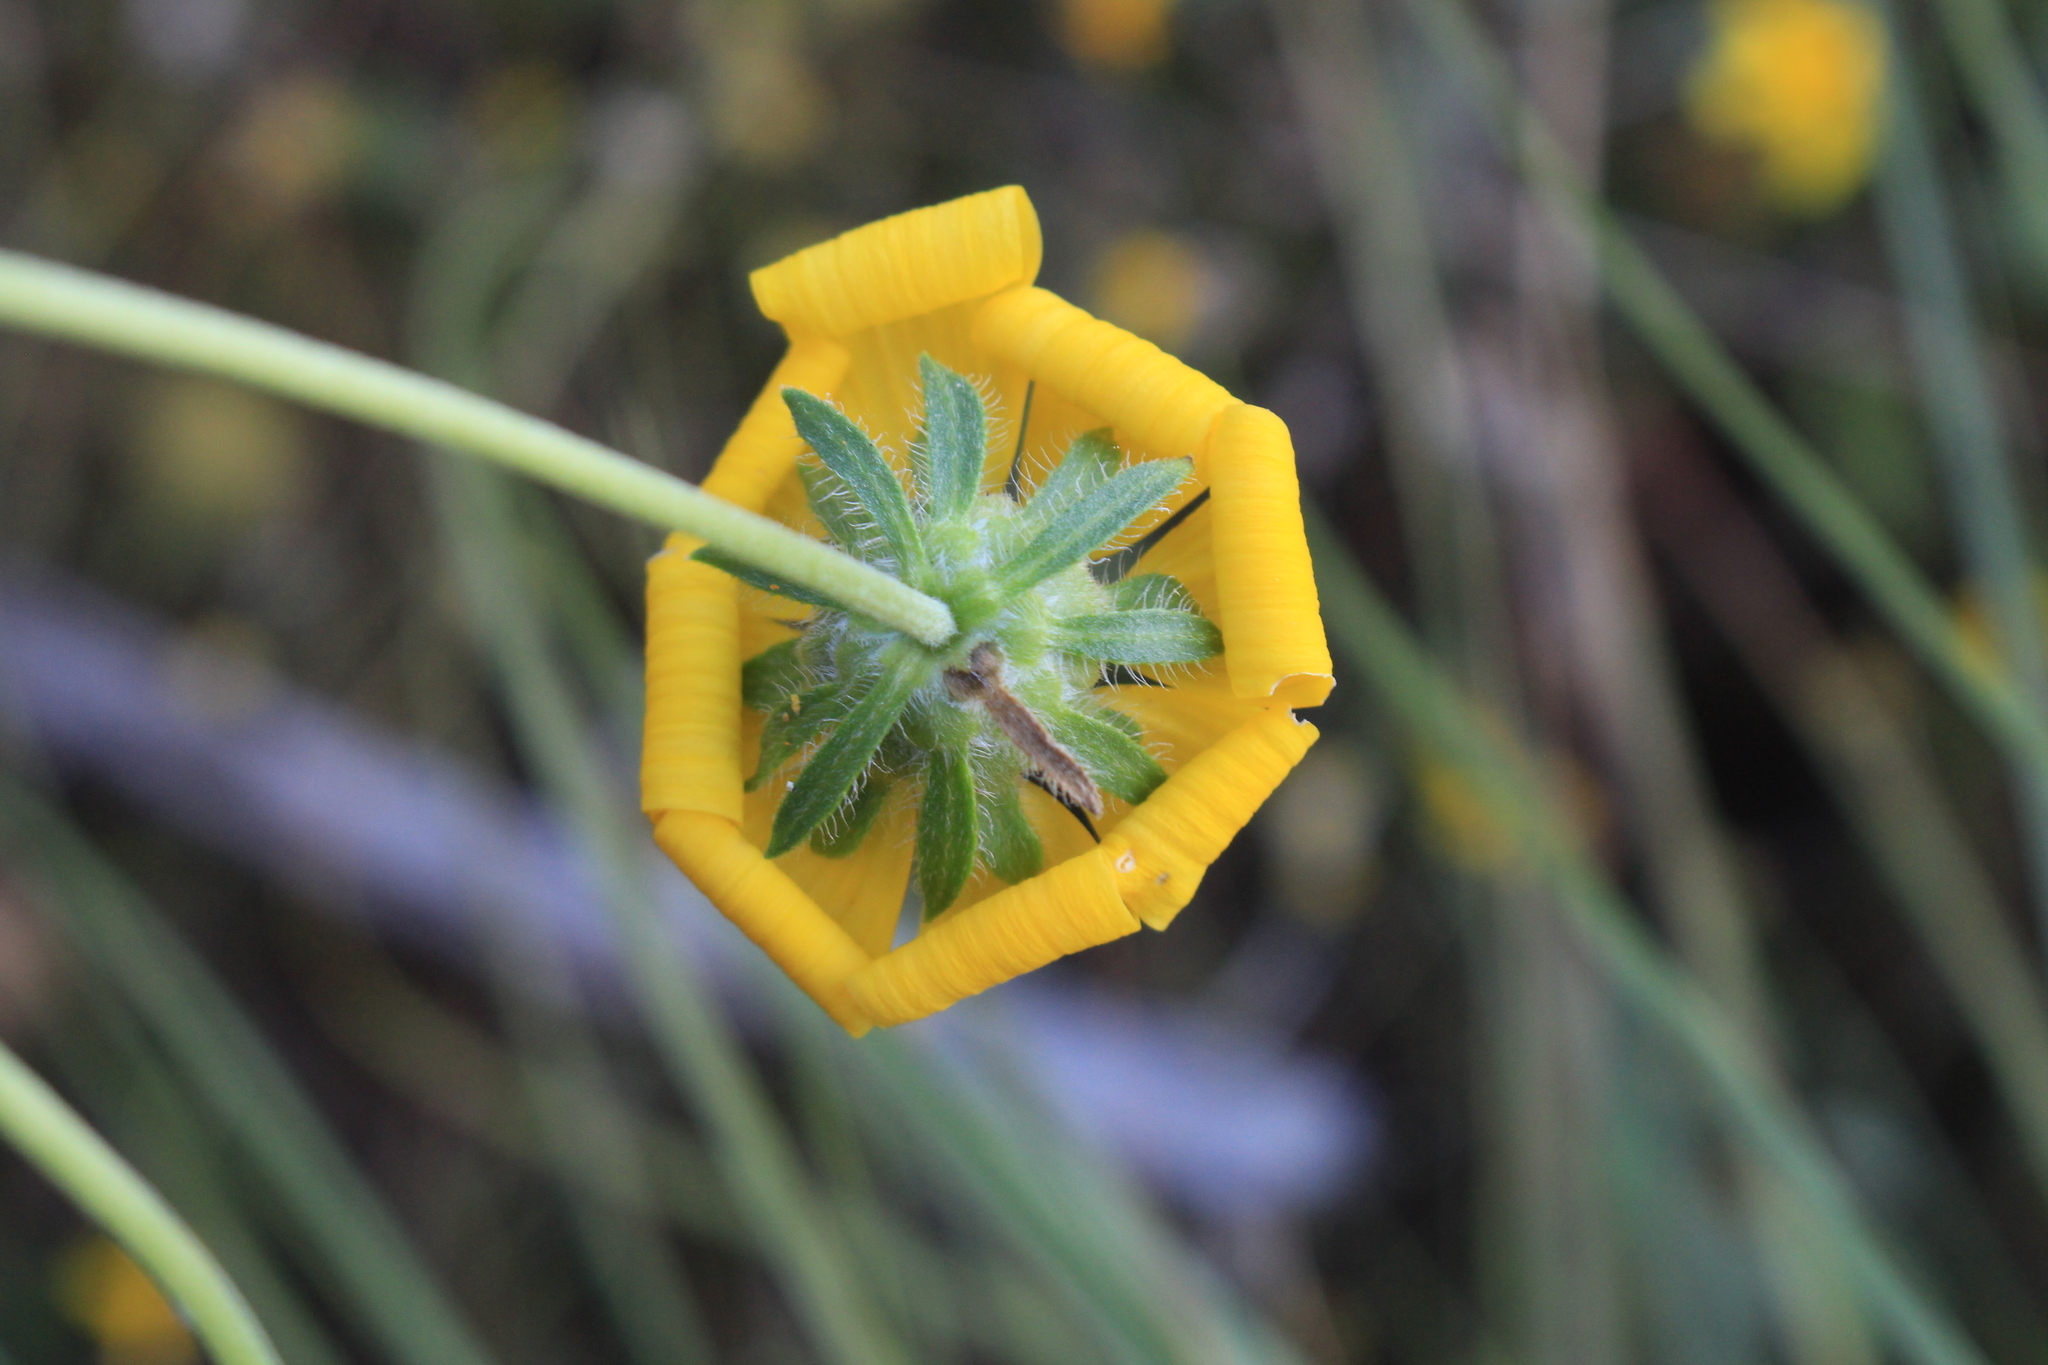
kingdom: Plantae
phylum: Tracheophyta
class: Magnoliopsida
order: Asterales
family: Asteraceae
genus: Engelmannia
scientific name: Engelmannia peristenia
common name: Engelmann's daisy
